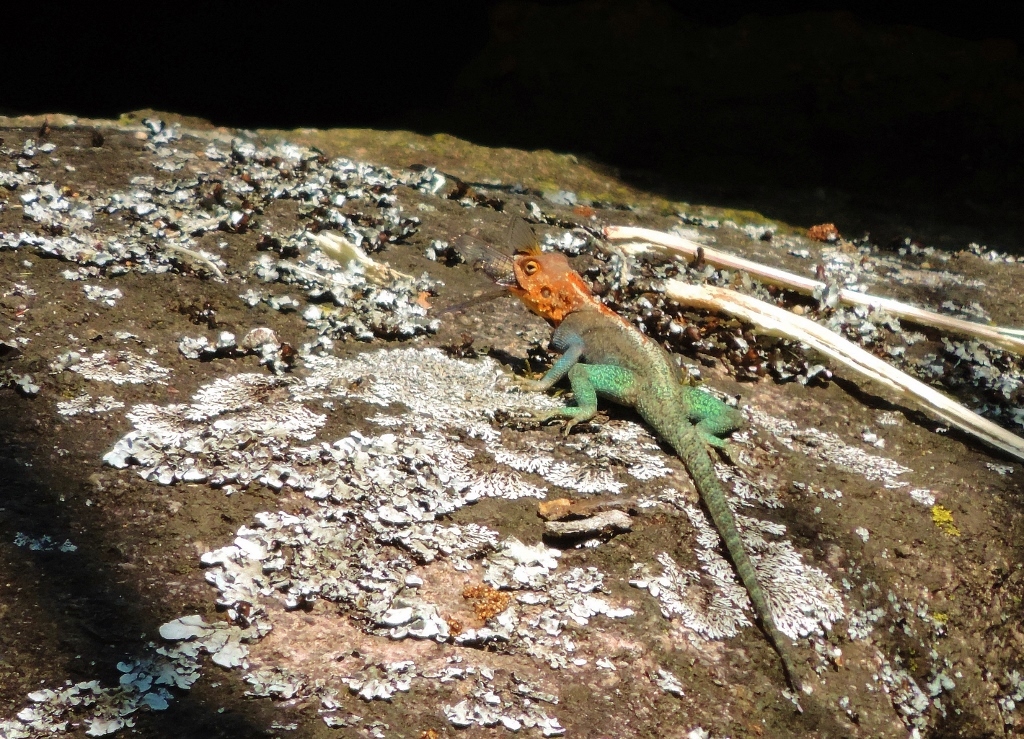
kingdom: Animalia
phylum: Chordata
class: Squamata
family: Agamidae
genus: Agama
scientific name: Agama kirkii
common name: Kirk's rock agama
